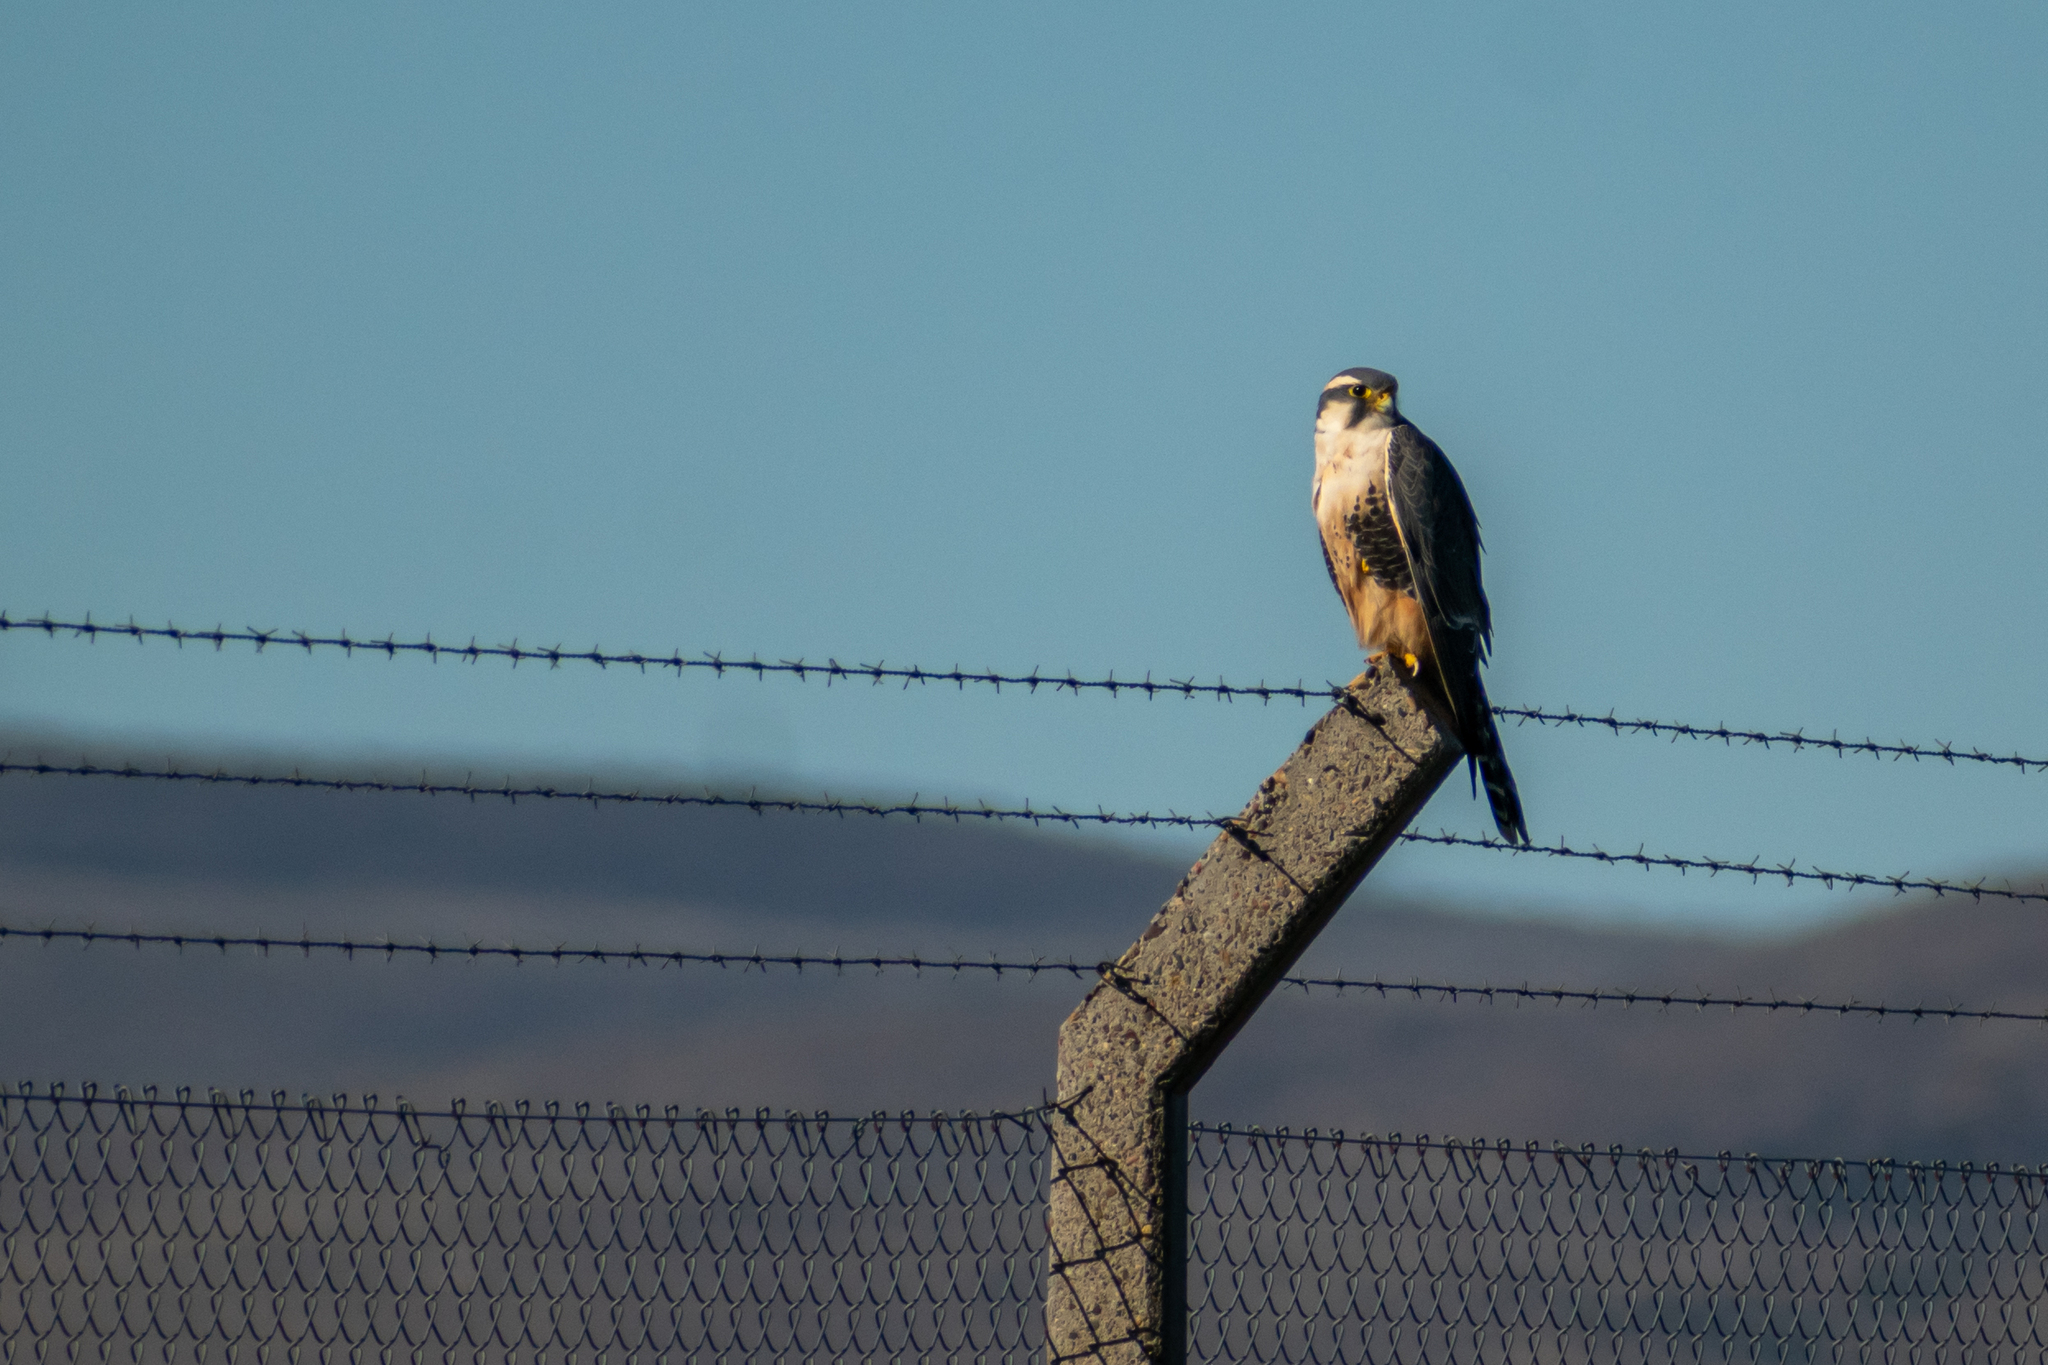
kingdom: Animalia
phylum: Chordata
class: Aves
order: Falconiformes
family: Falconidae
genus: Falco
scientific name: Falco femoralis
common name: Aplomado falcon
